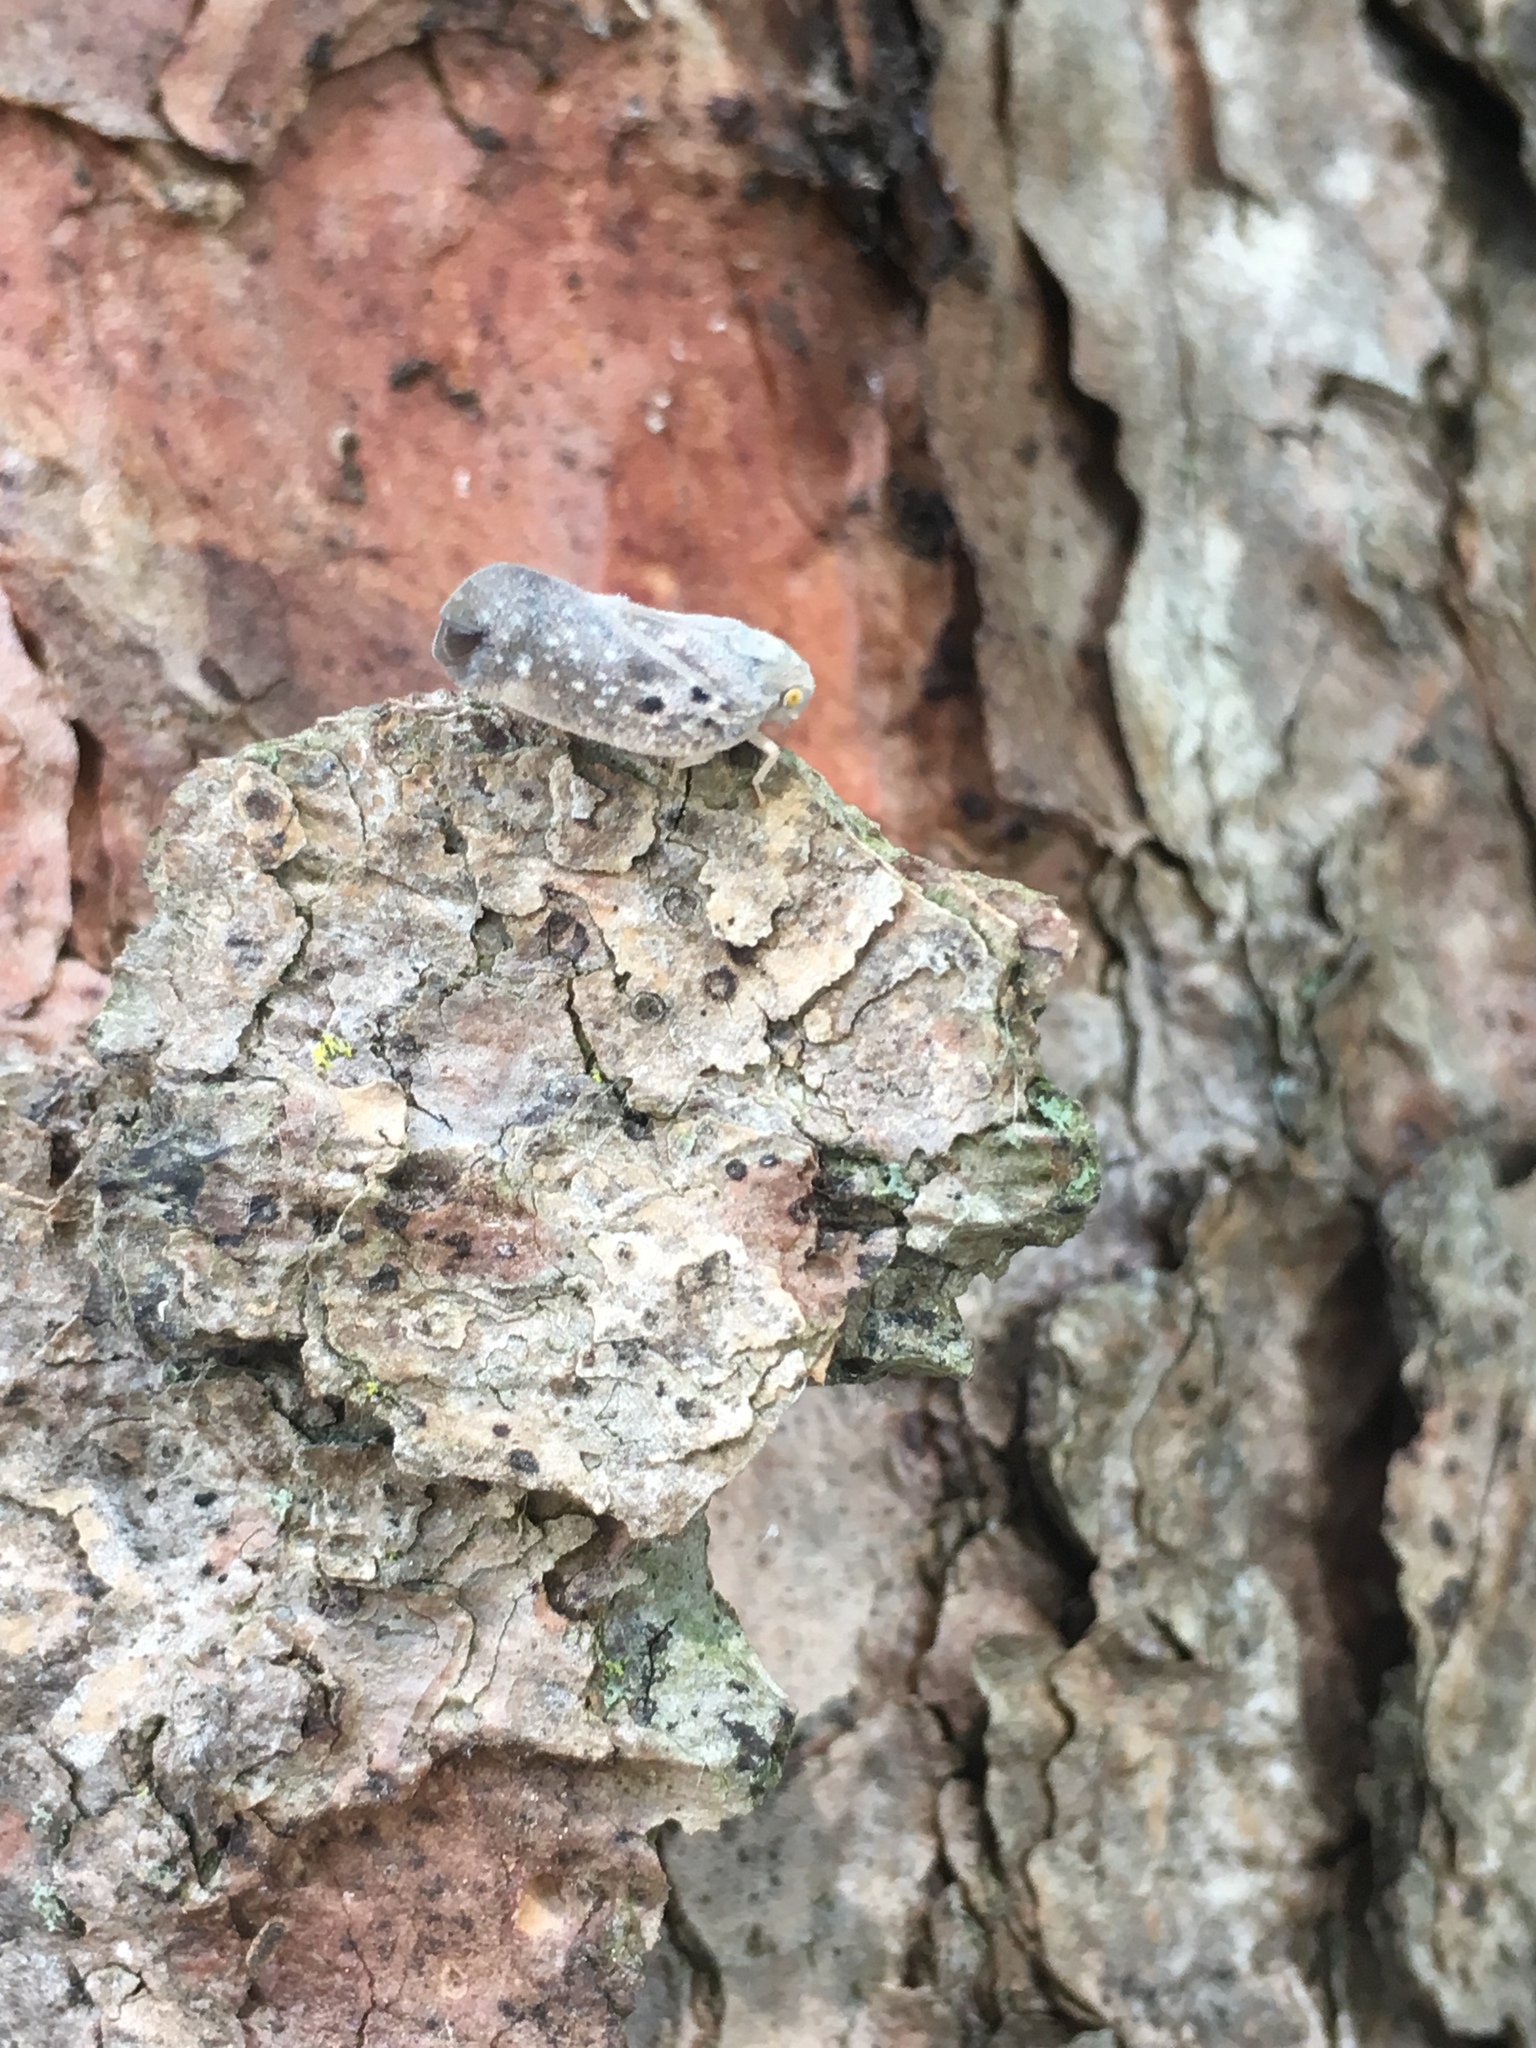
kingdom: Animalia
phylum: Arthropoda
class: Insecta
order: Hemiptera
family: Flatidae
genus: Metcalfa
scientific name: Metcalfa pruinosa
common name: Citrus flatid planthopper
